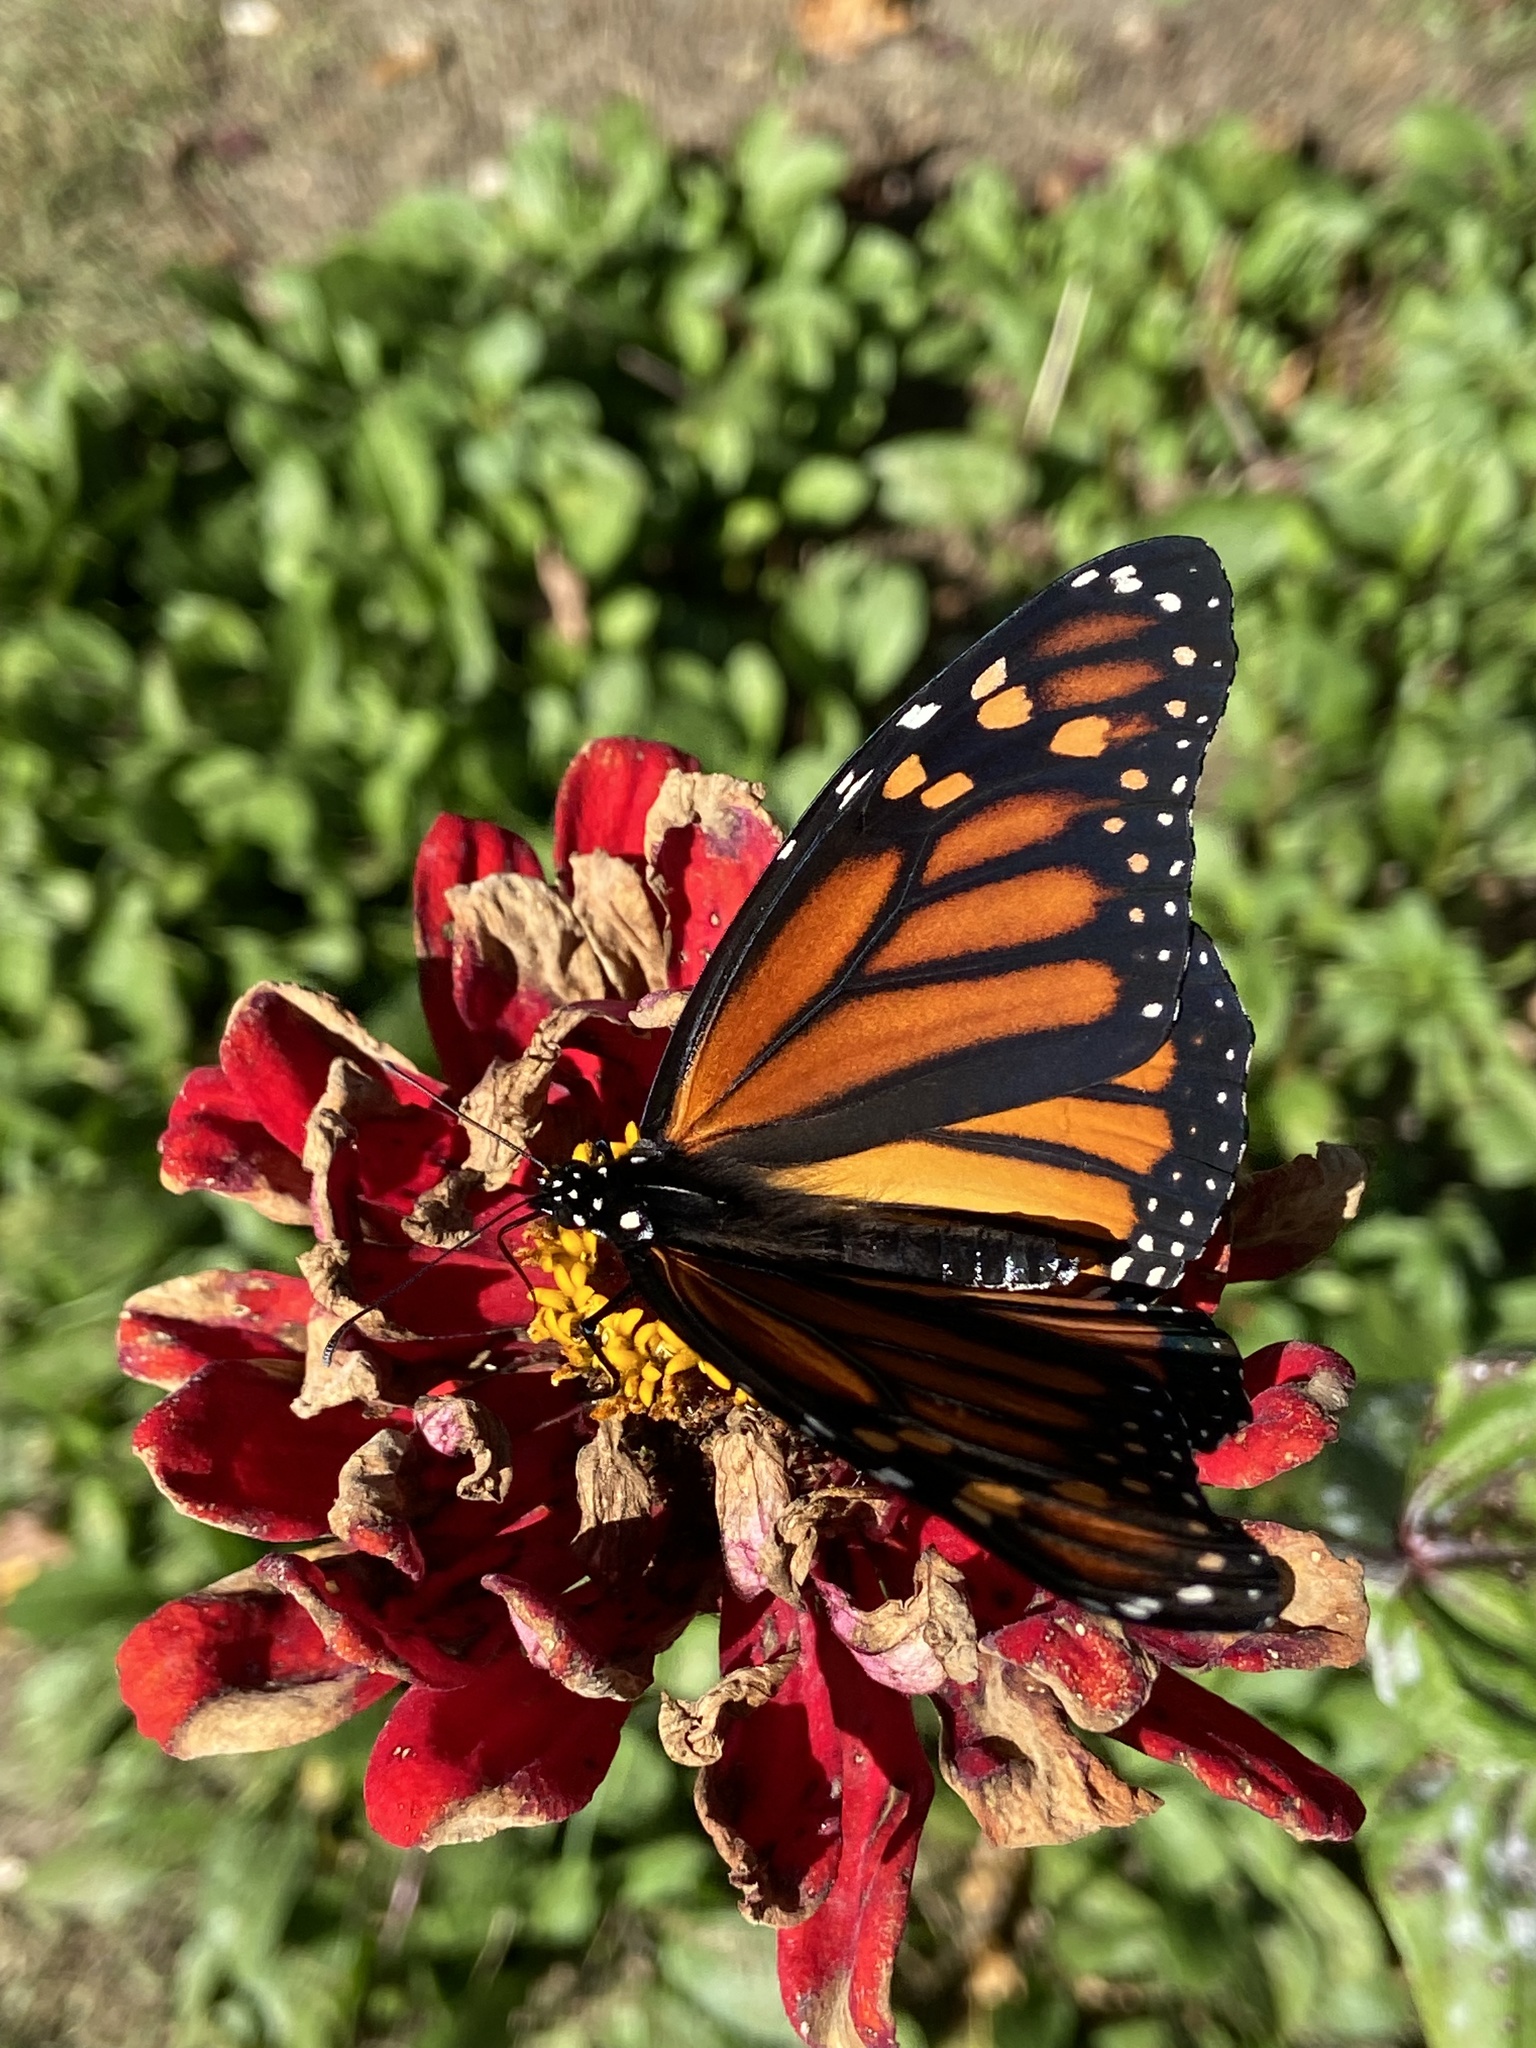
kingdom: Animalia
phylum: Arthropoda
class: Insecta
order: Lepidoptera
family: Nymphalidae
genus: Danaus
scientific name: Danaus plexippus
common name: Monarch
